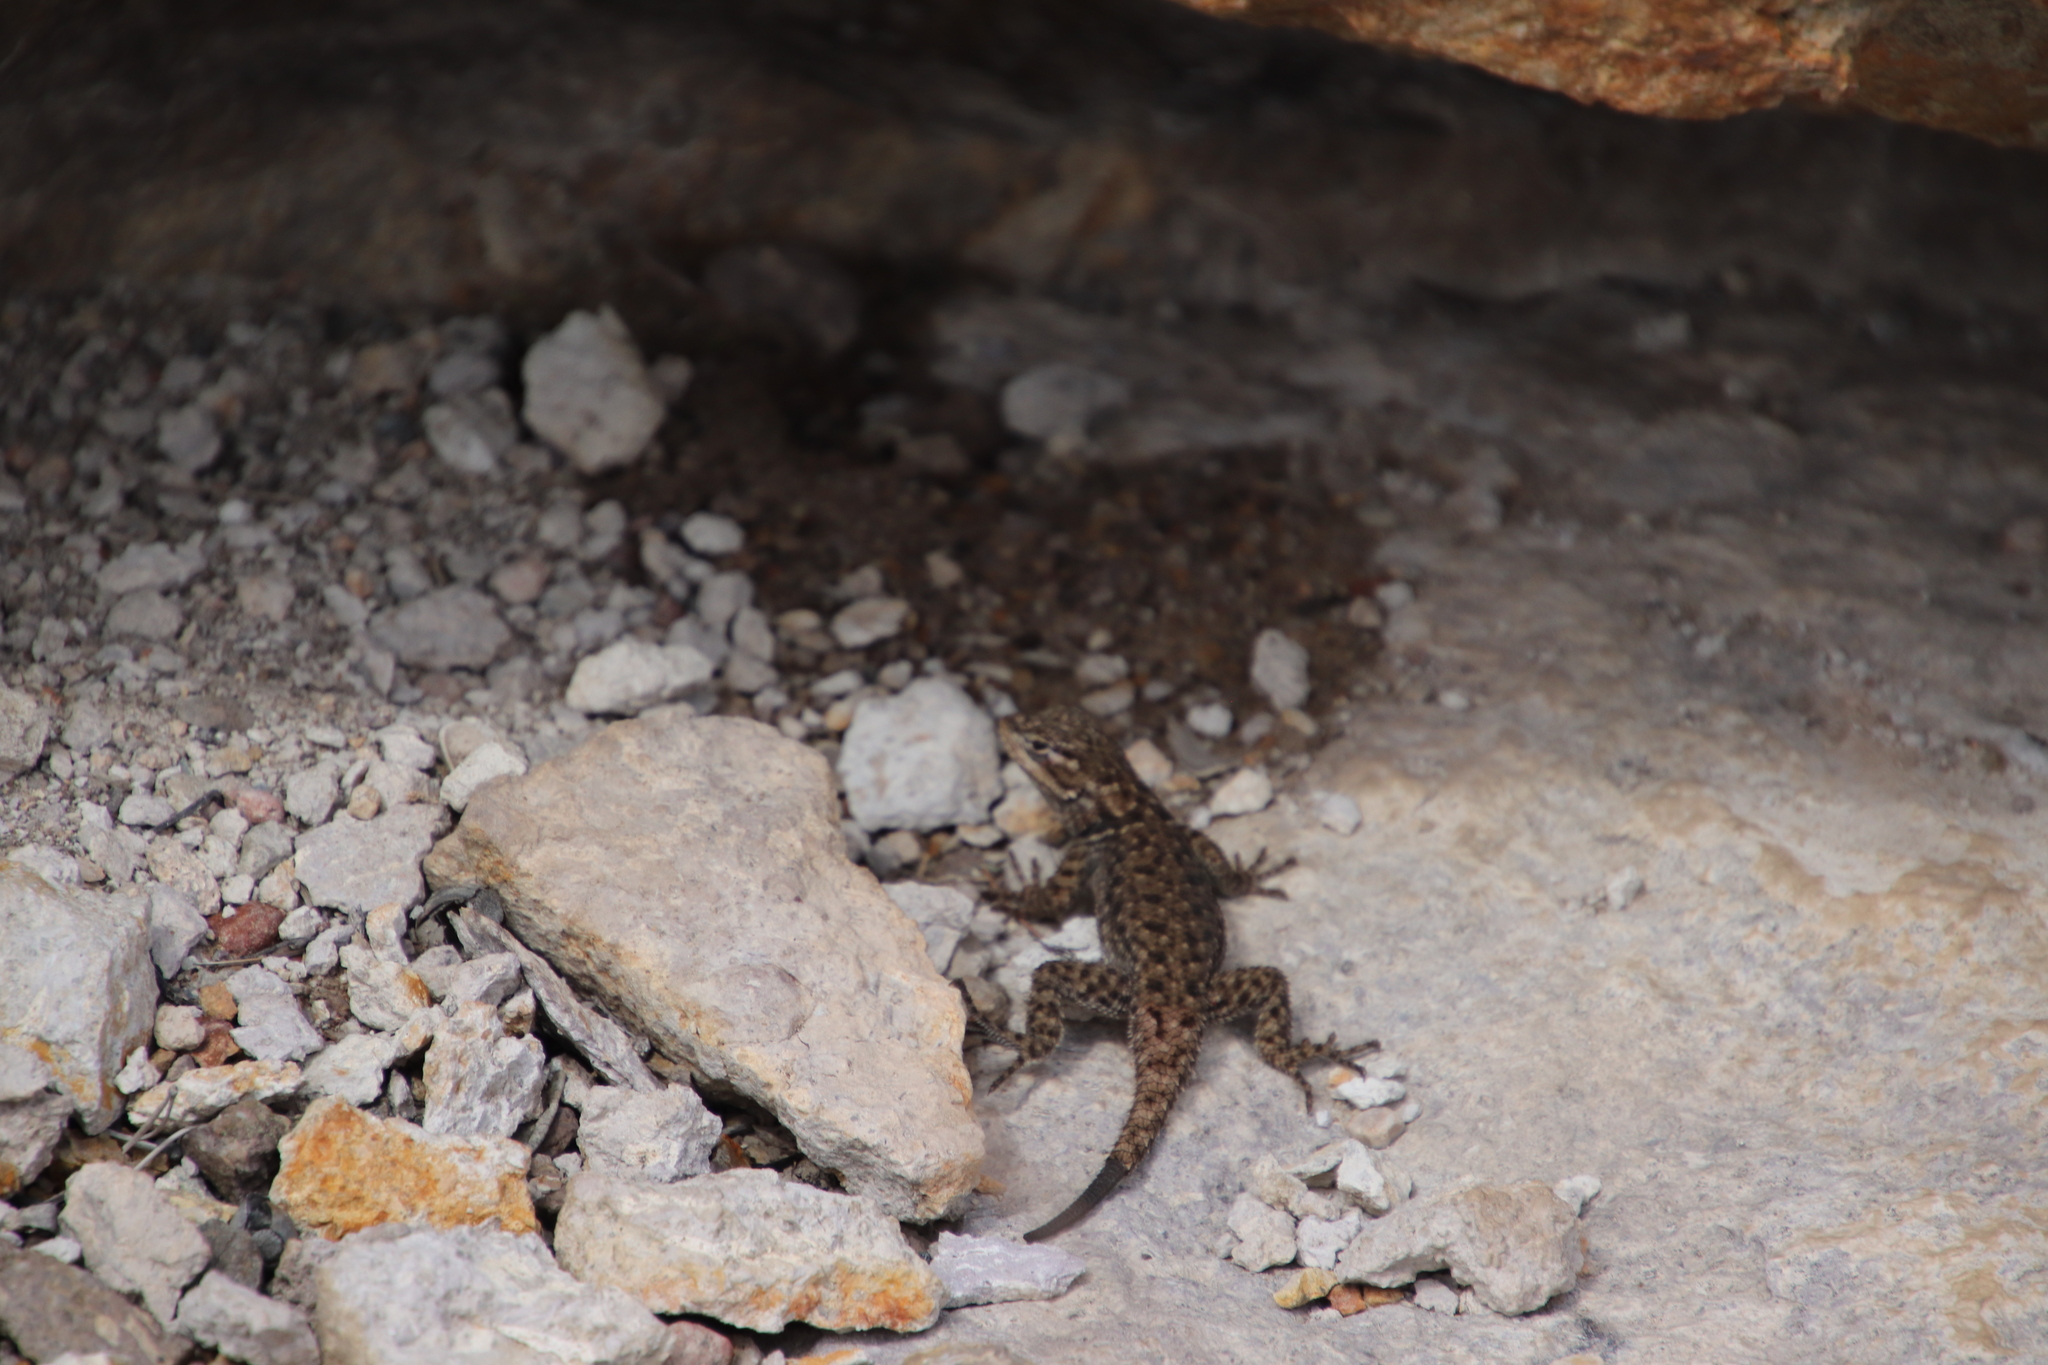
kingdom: Animalia
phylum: Chordata
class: Squamata
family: Phrynosomatidae
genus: Sceloporus
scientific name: Sceloporus jarrovii
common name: Yarrow's spiny lizard
